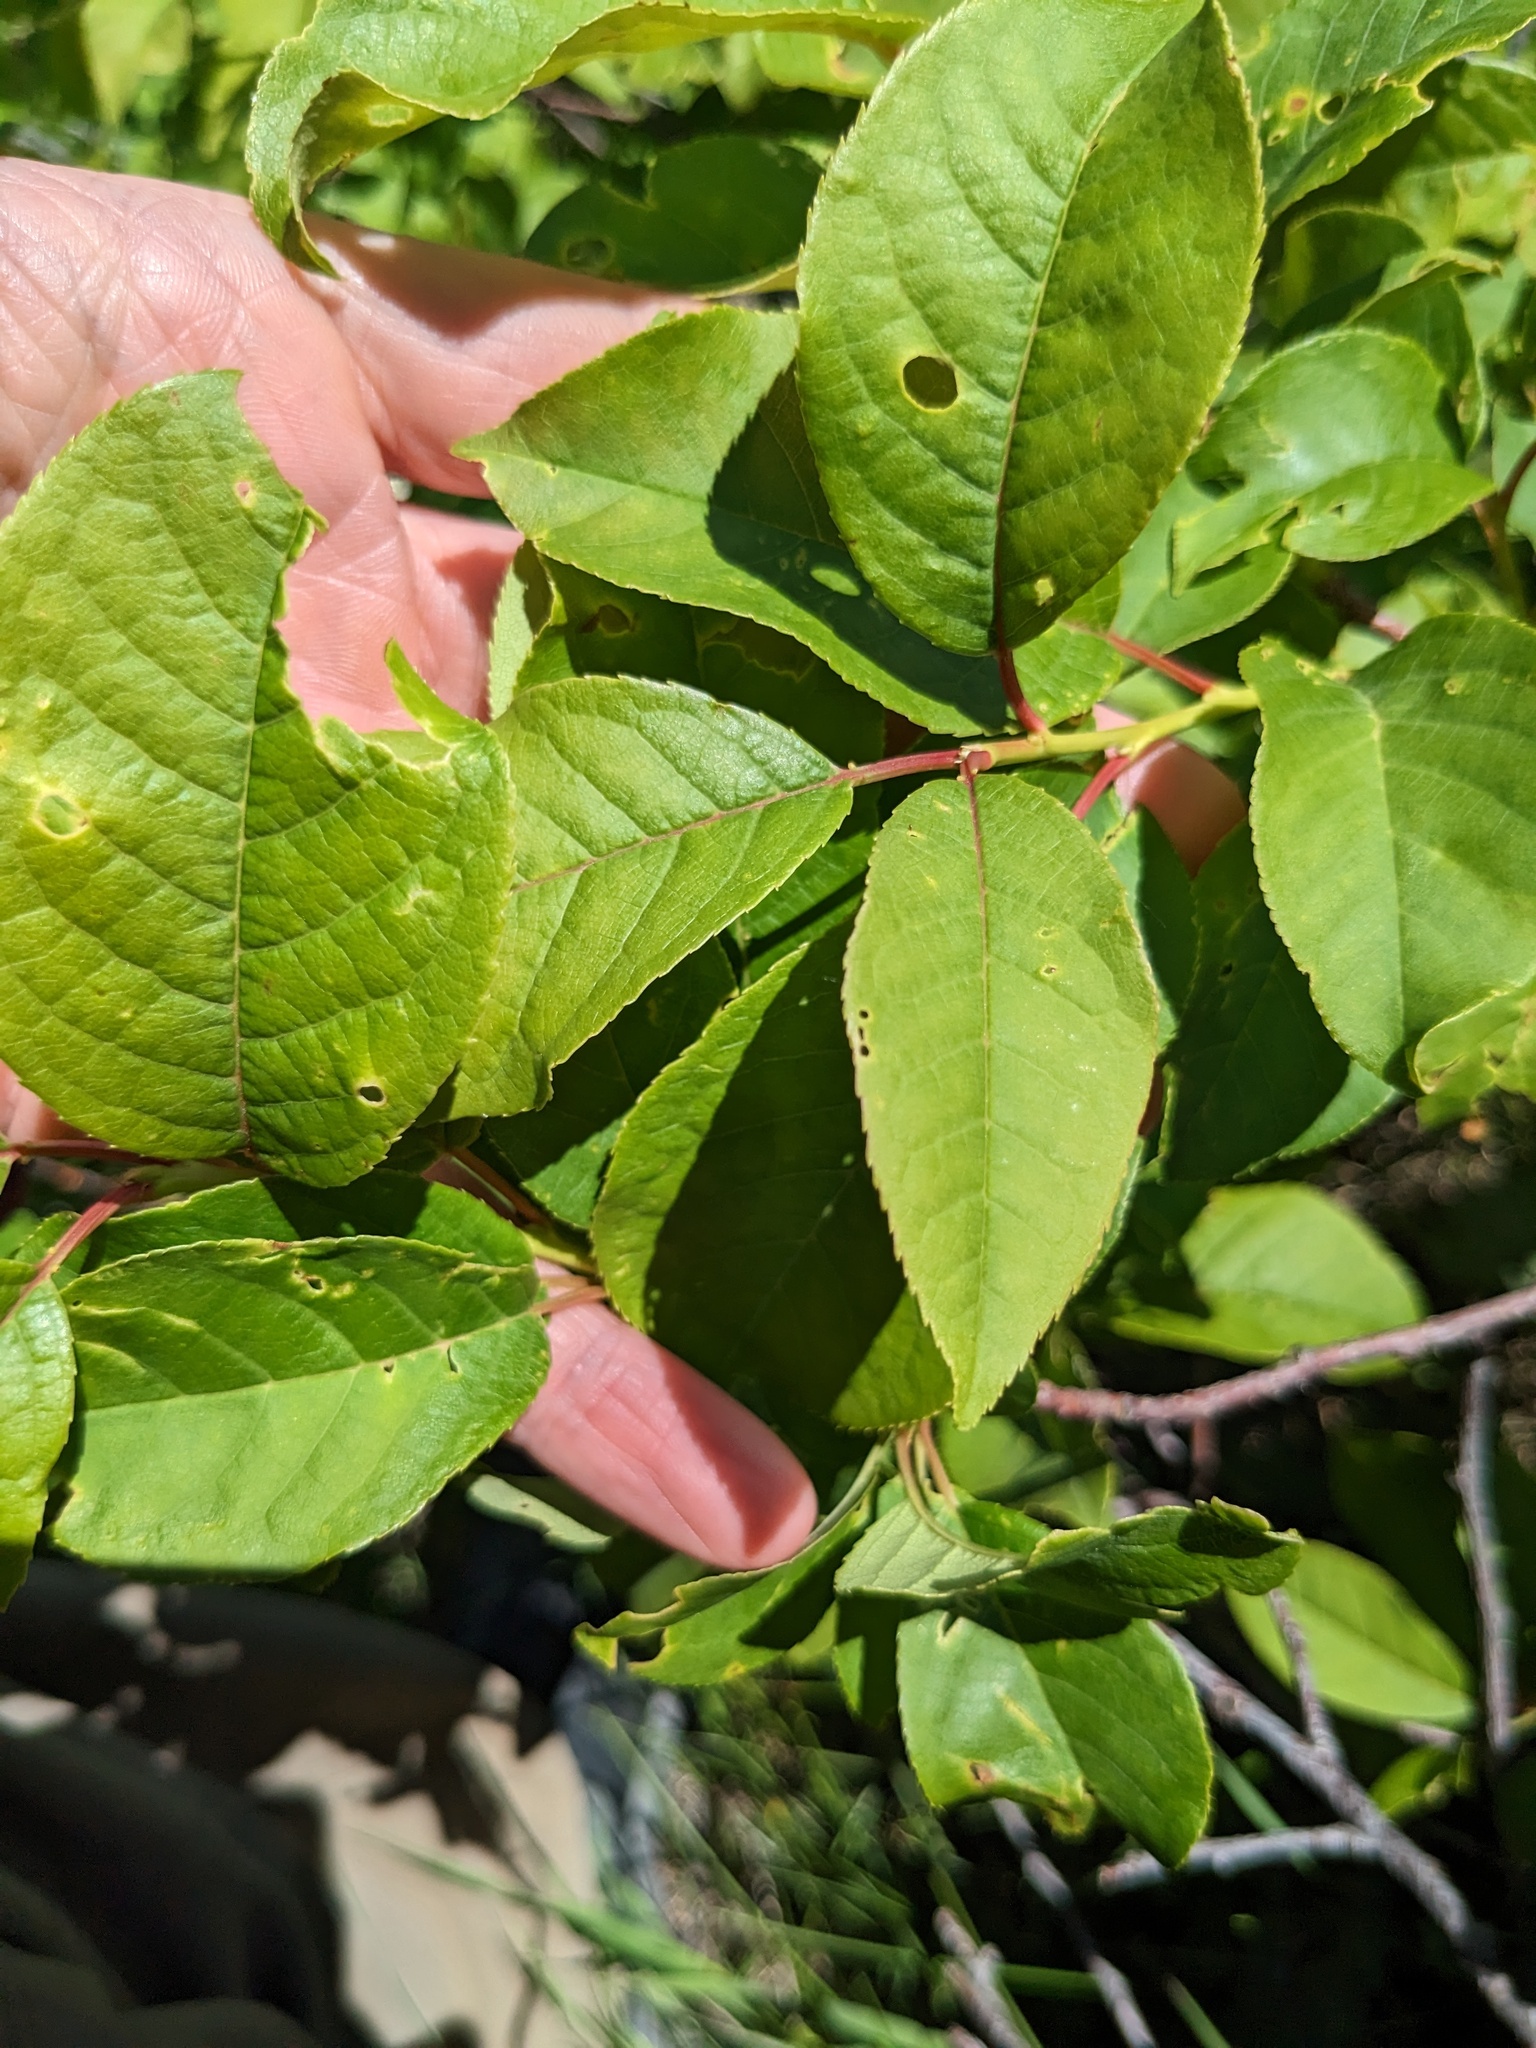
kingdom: Plantae
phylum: Tracheophyta
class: Magnoliopsida
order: Rosales
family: Rosaceae
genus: Prunus
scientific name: Prunus virginiana
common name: Chokecherry
